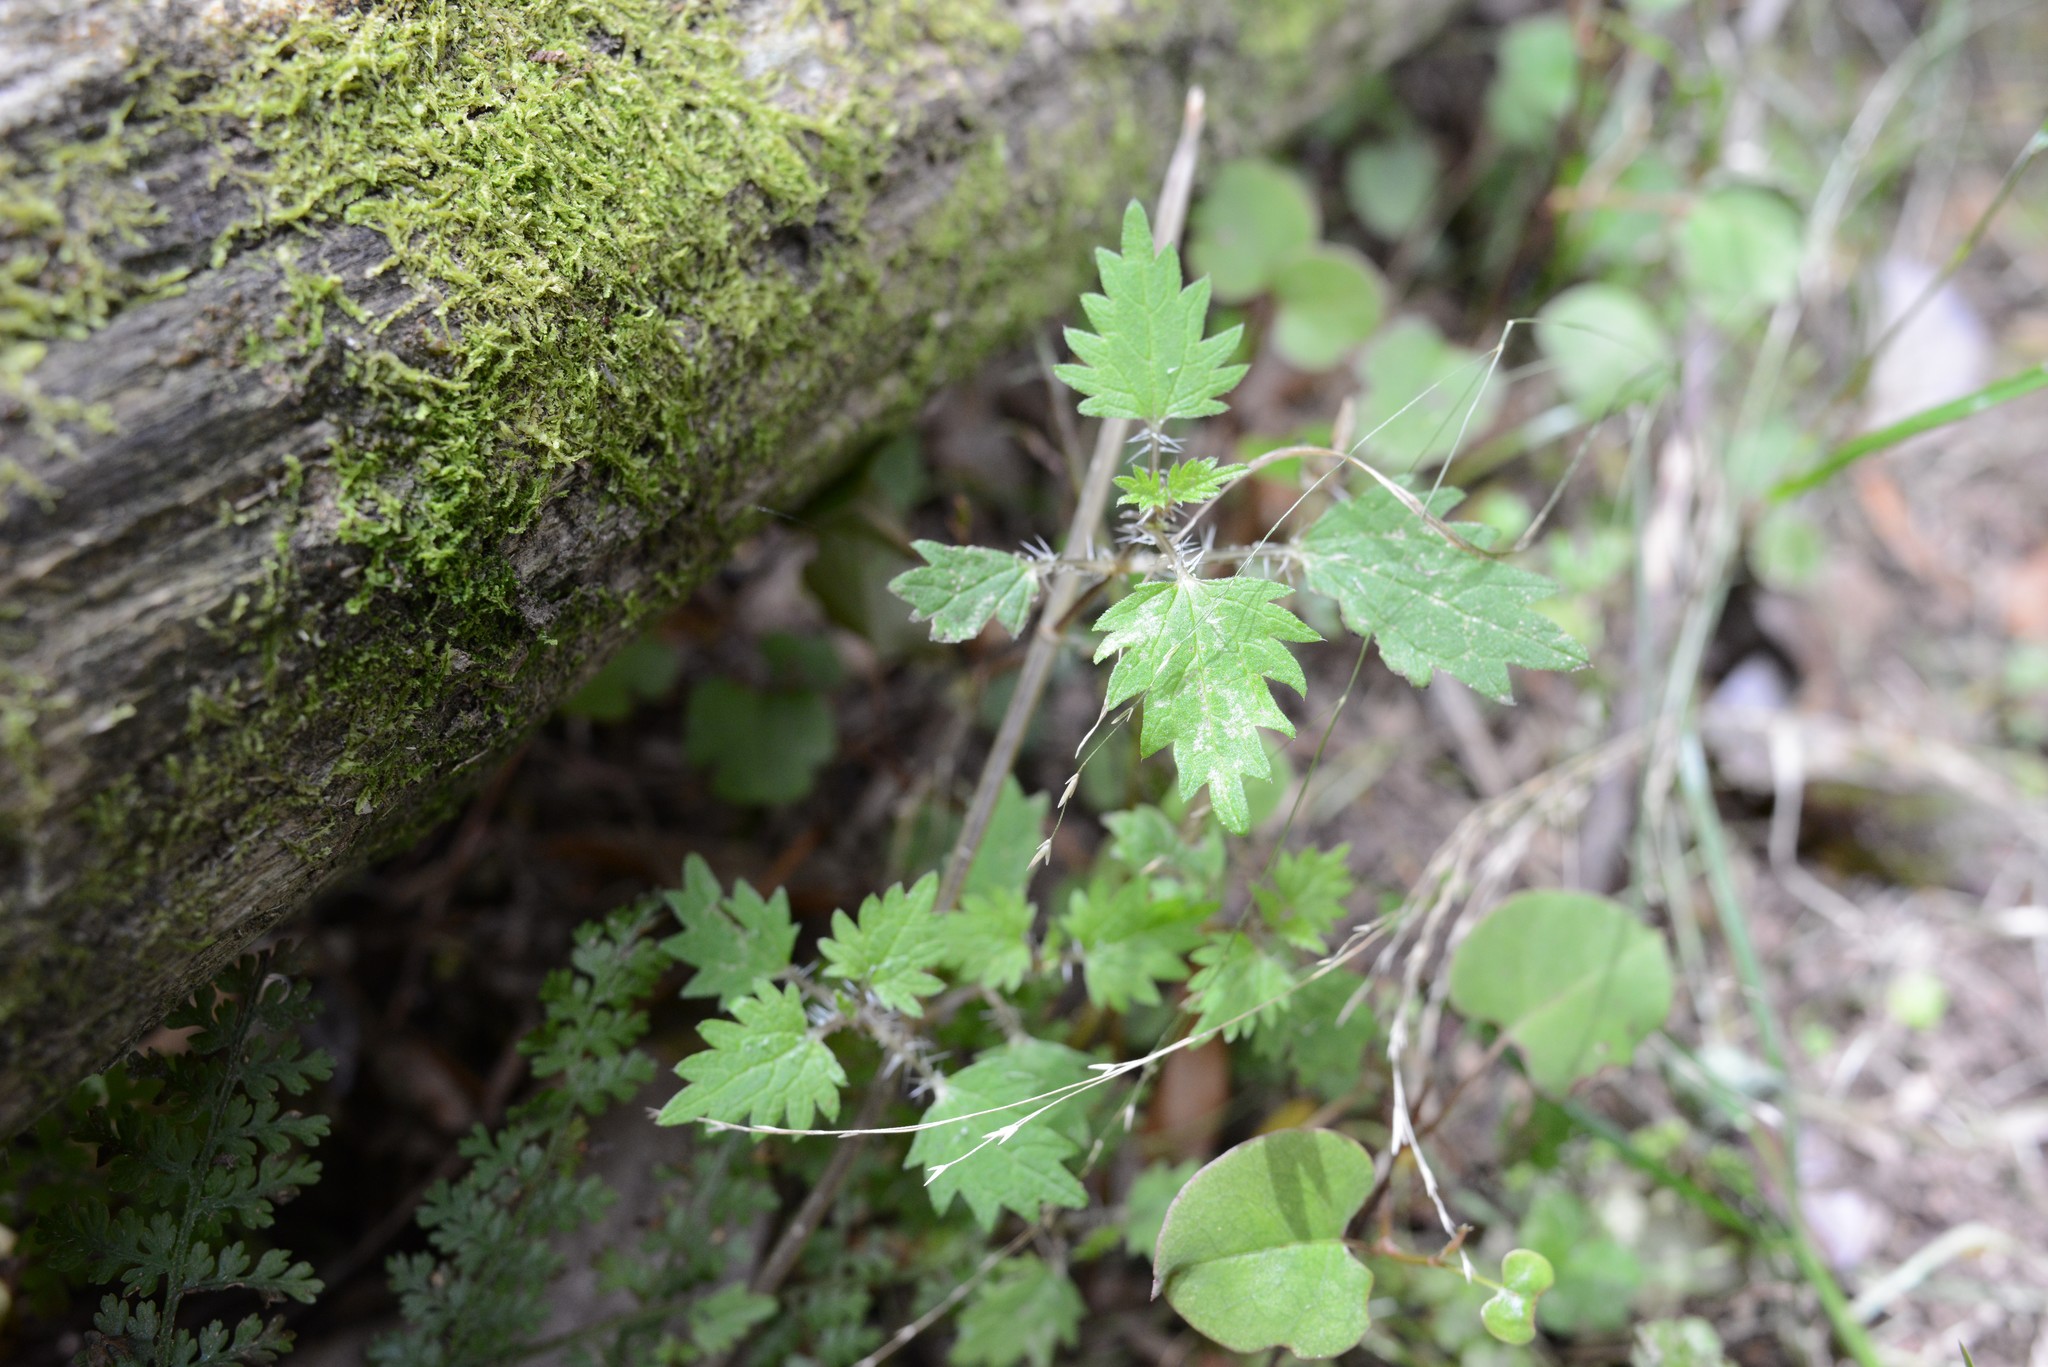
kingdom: Plantae
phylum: Tracheophyta
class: Magnoliopsida
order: Rosales
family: Urticaceae
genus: Urtica
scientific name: Urtica sykesii
